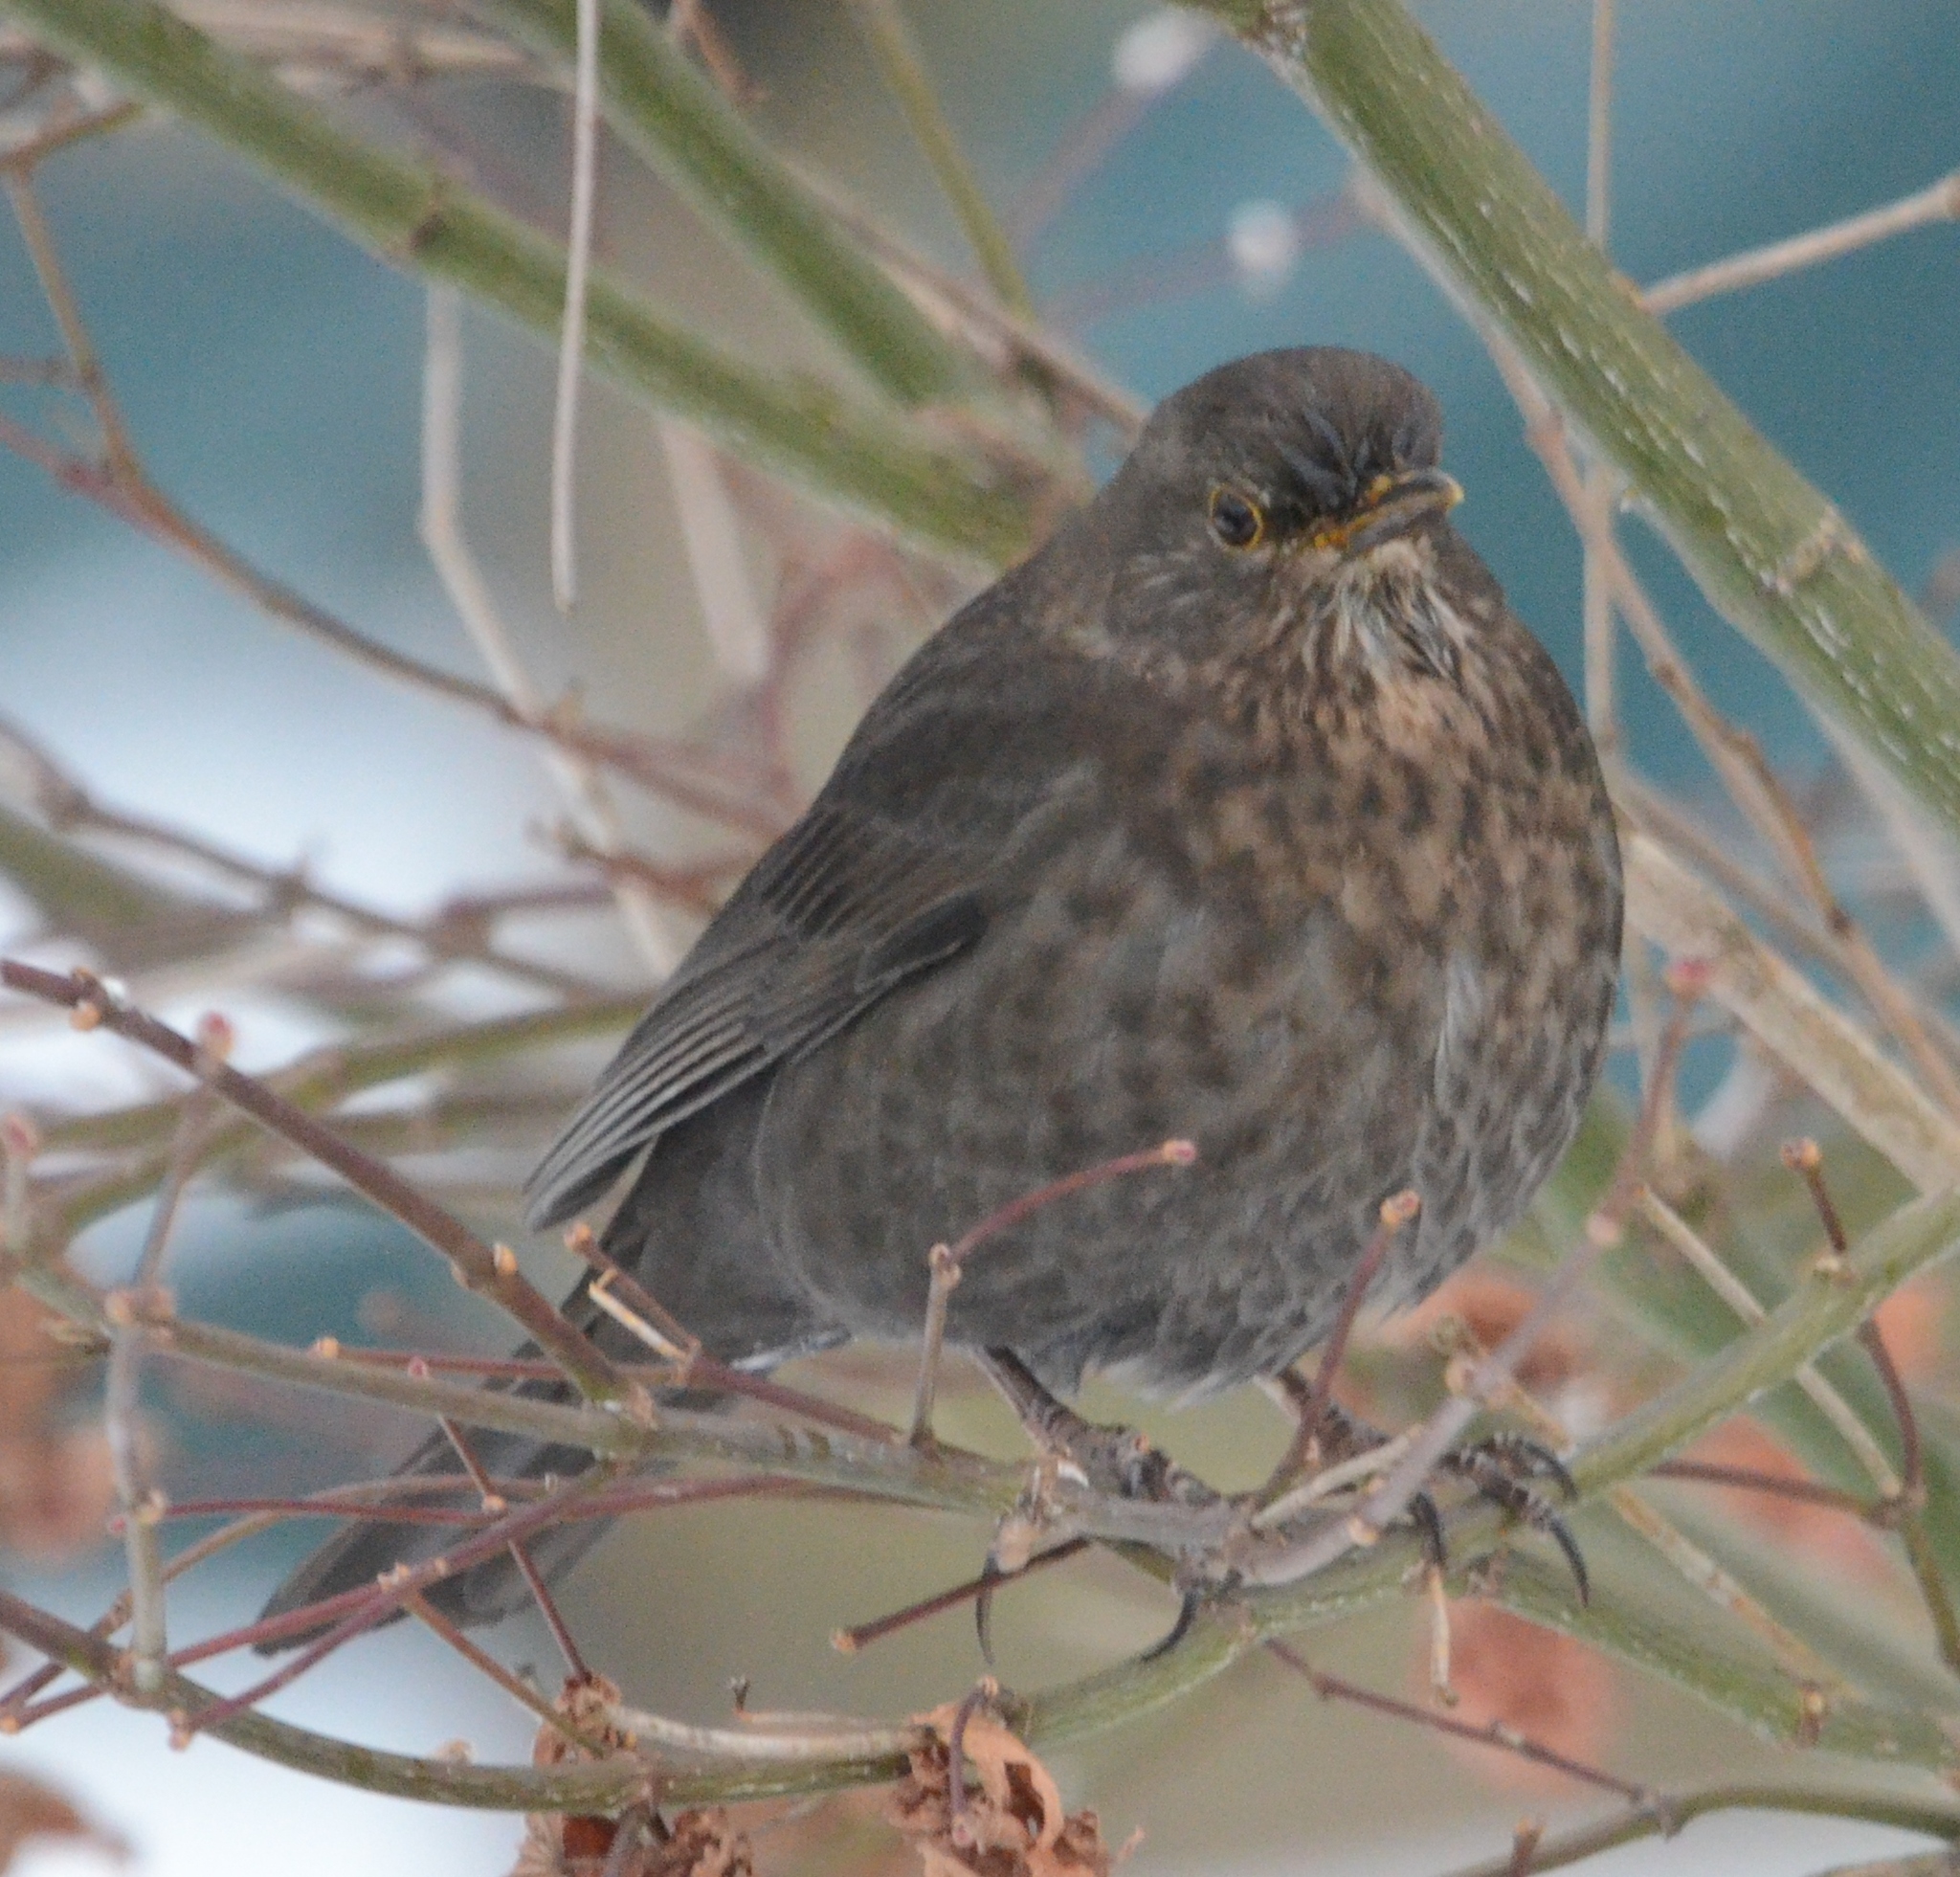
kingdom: Animalia
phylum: Chordata
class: Aves
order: Passeriformes
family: Turdidae
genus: Turdus
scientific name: Turdus merula
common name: Common blackbird
